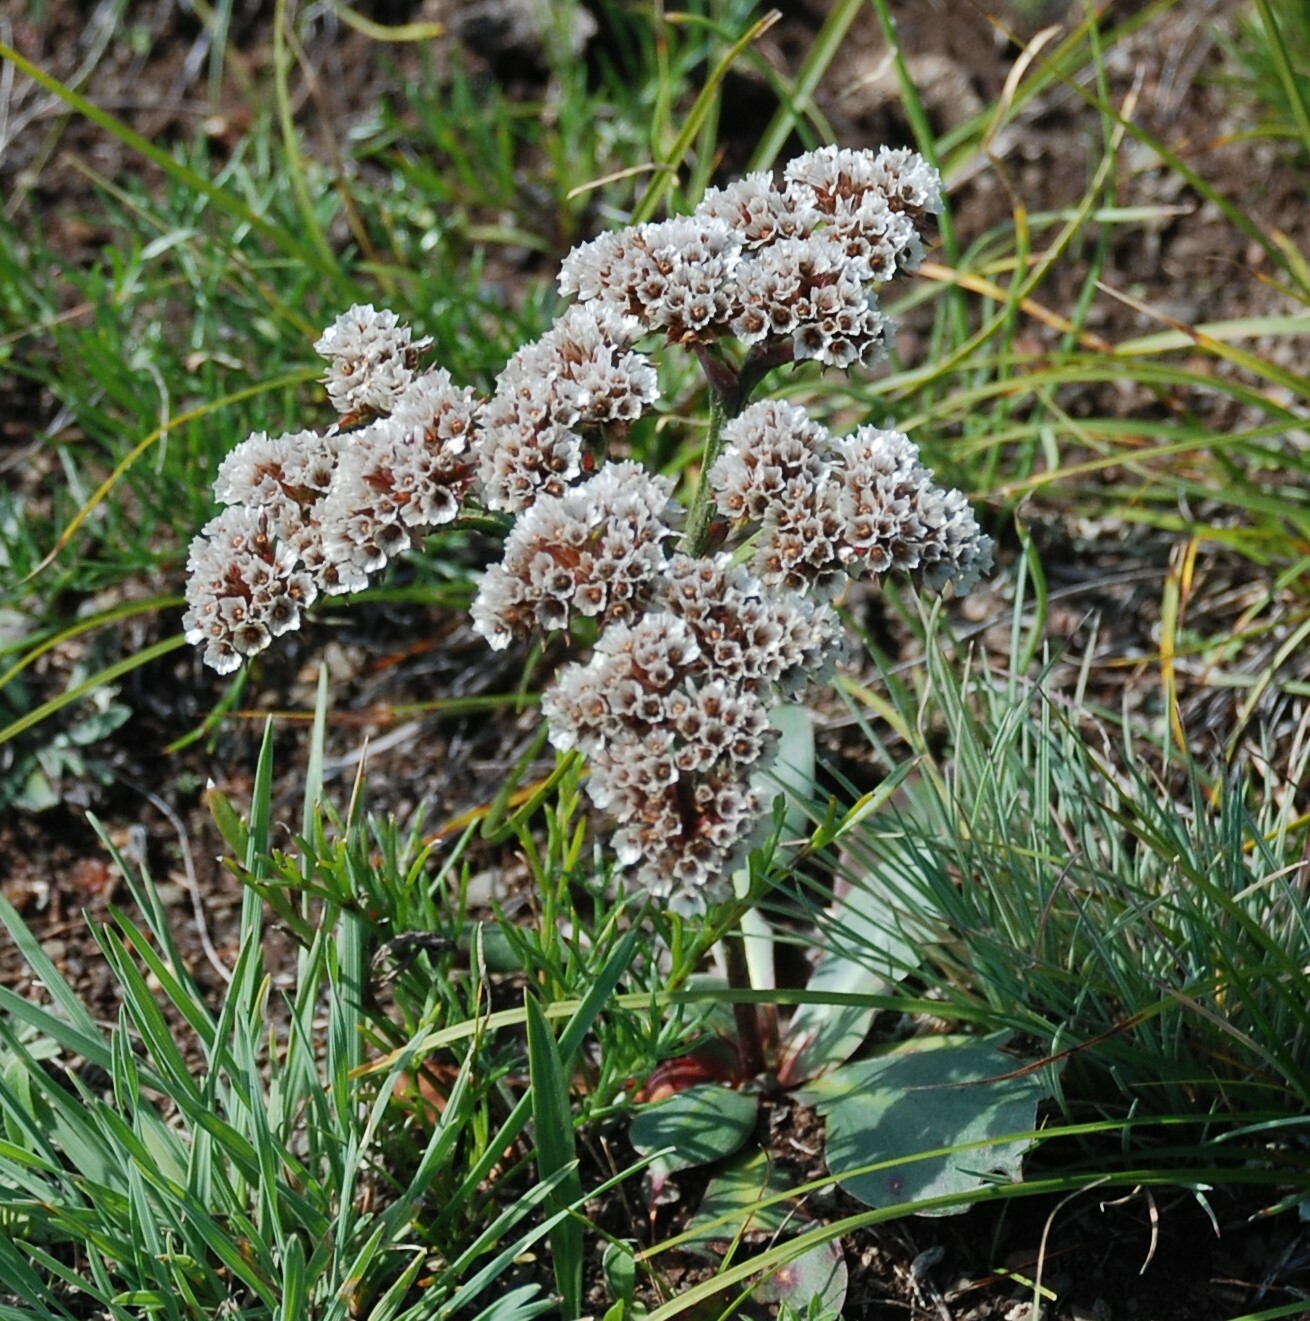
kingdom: Plantae
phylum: Tracheophyta
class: Magnoliopsida
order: Caryophyllales
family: Plumbaginaceae
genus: Goniolimon
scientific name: Goniolimon speciosum
